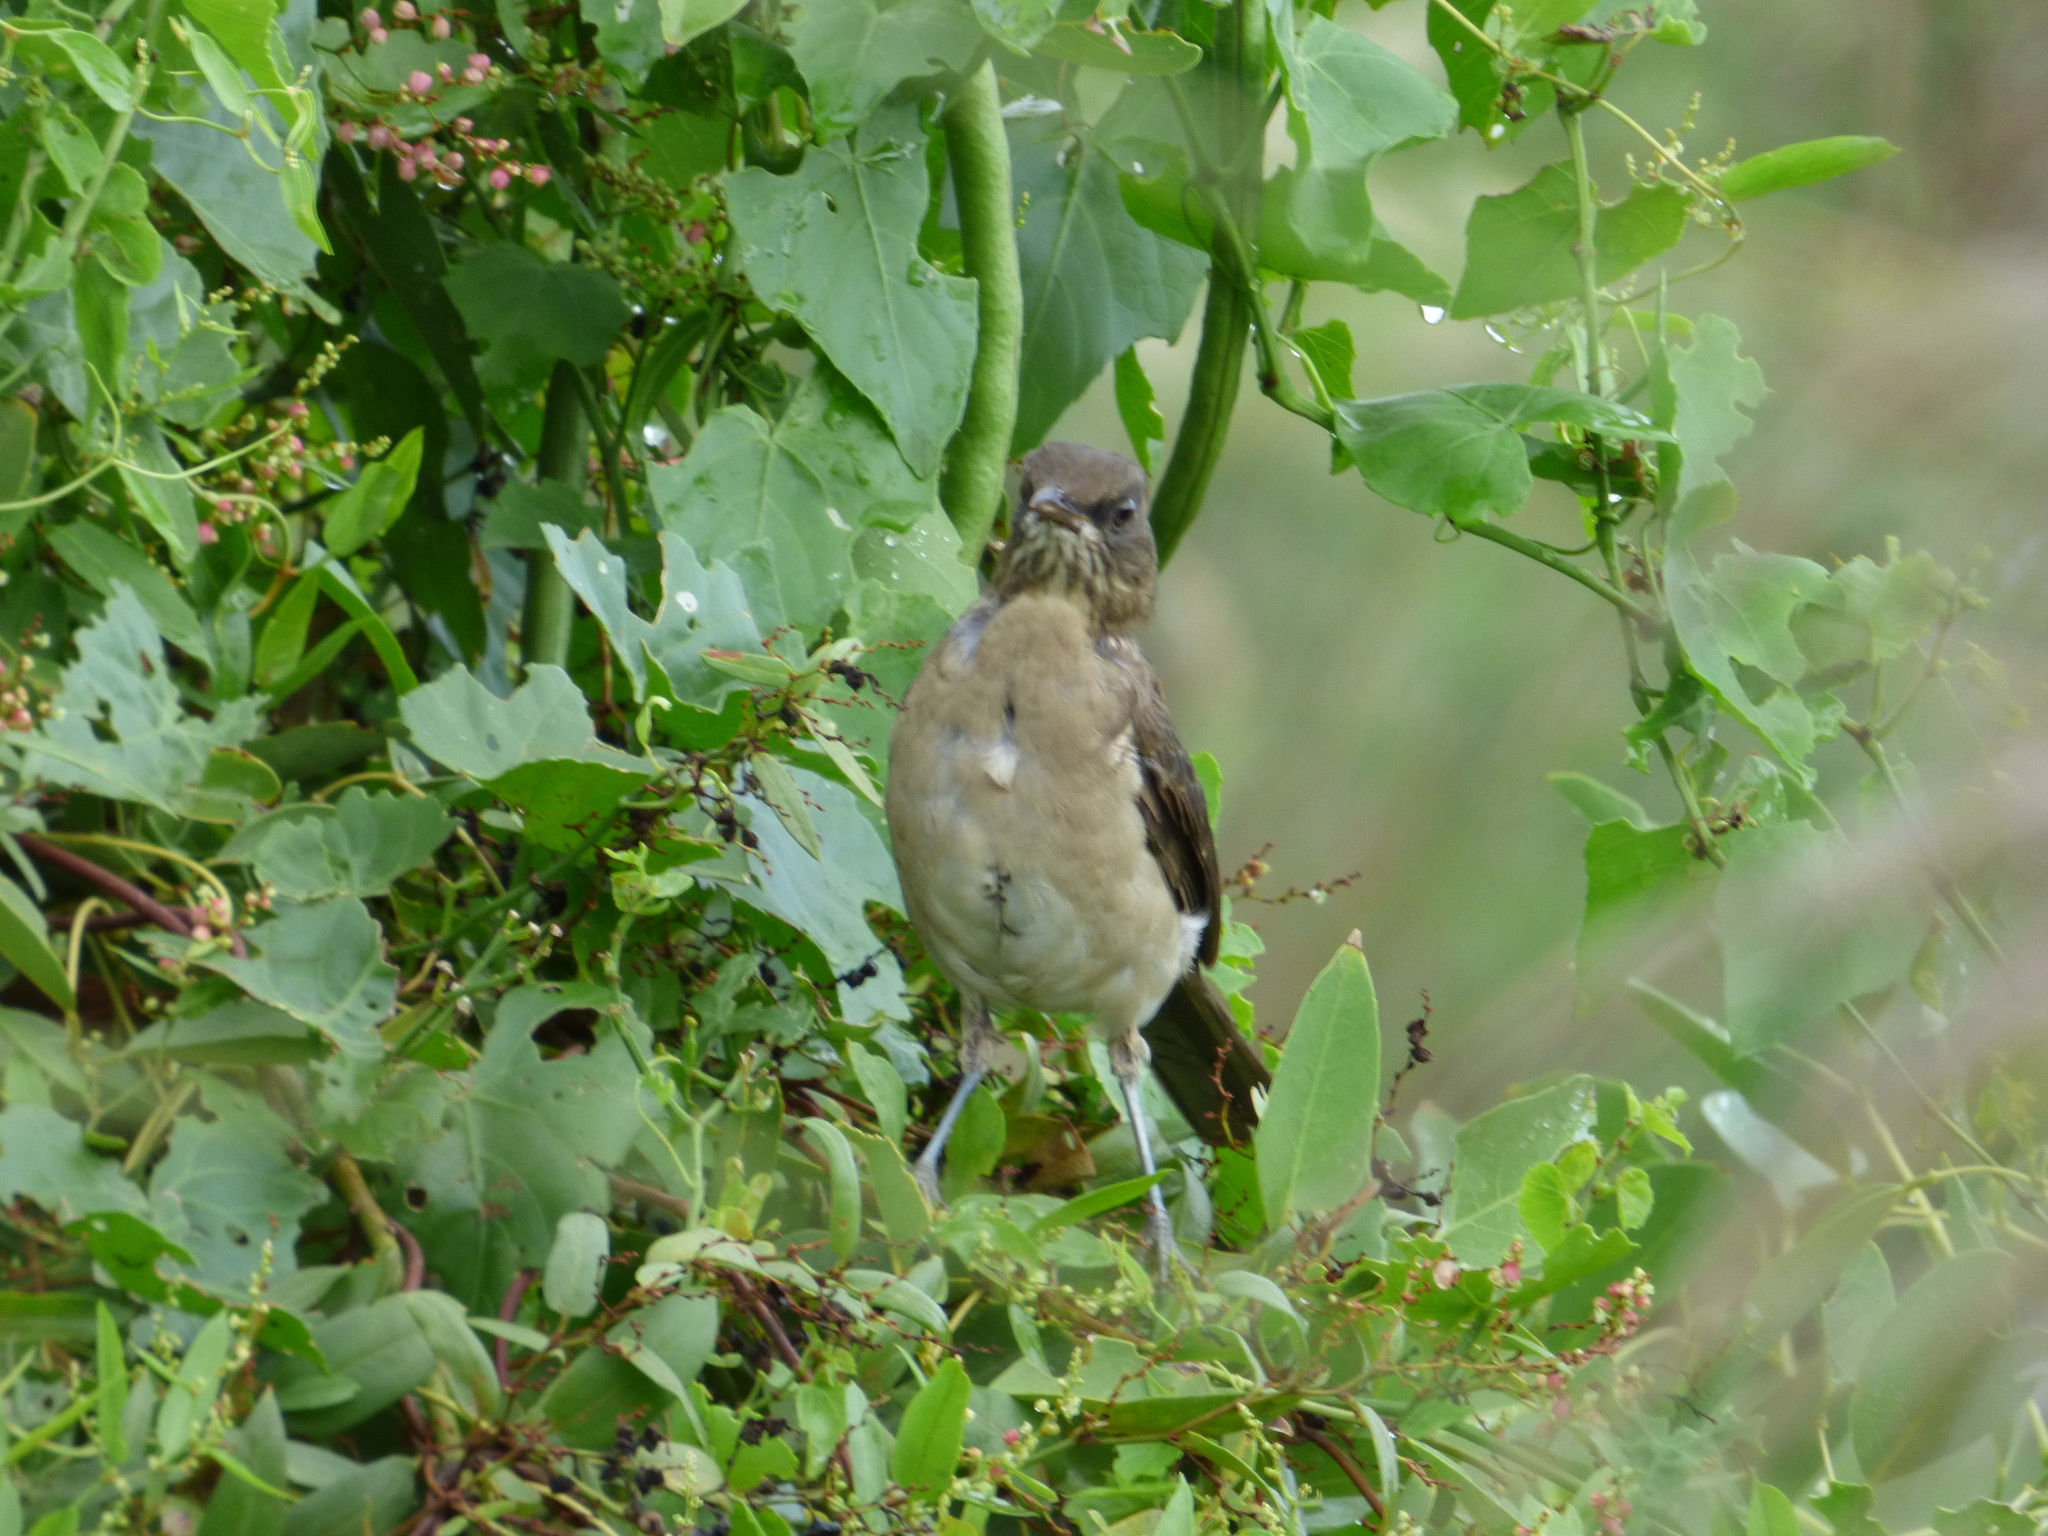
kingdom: Animalia
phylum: Chordata
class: Aves
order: Passeriformes
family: Turdidae
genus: Turdus
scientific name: Turdus amaurochalinus
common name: Creamy-bellied thrush
